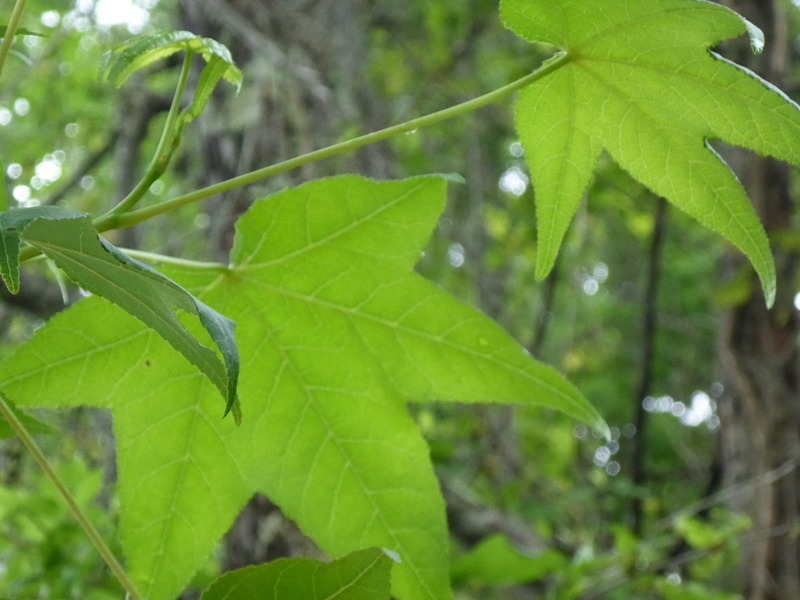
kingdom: Plantae
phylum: Tracheophyta
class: Magnoliopsida
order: Saxifragales
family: Altingiaceae
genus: Liquidambar
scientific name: Liquidambar styraciflua
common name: Sweet gum
